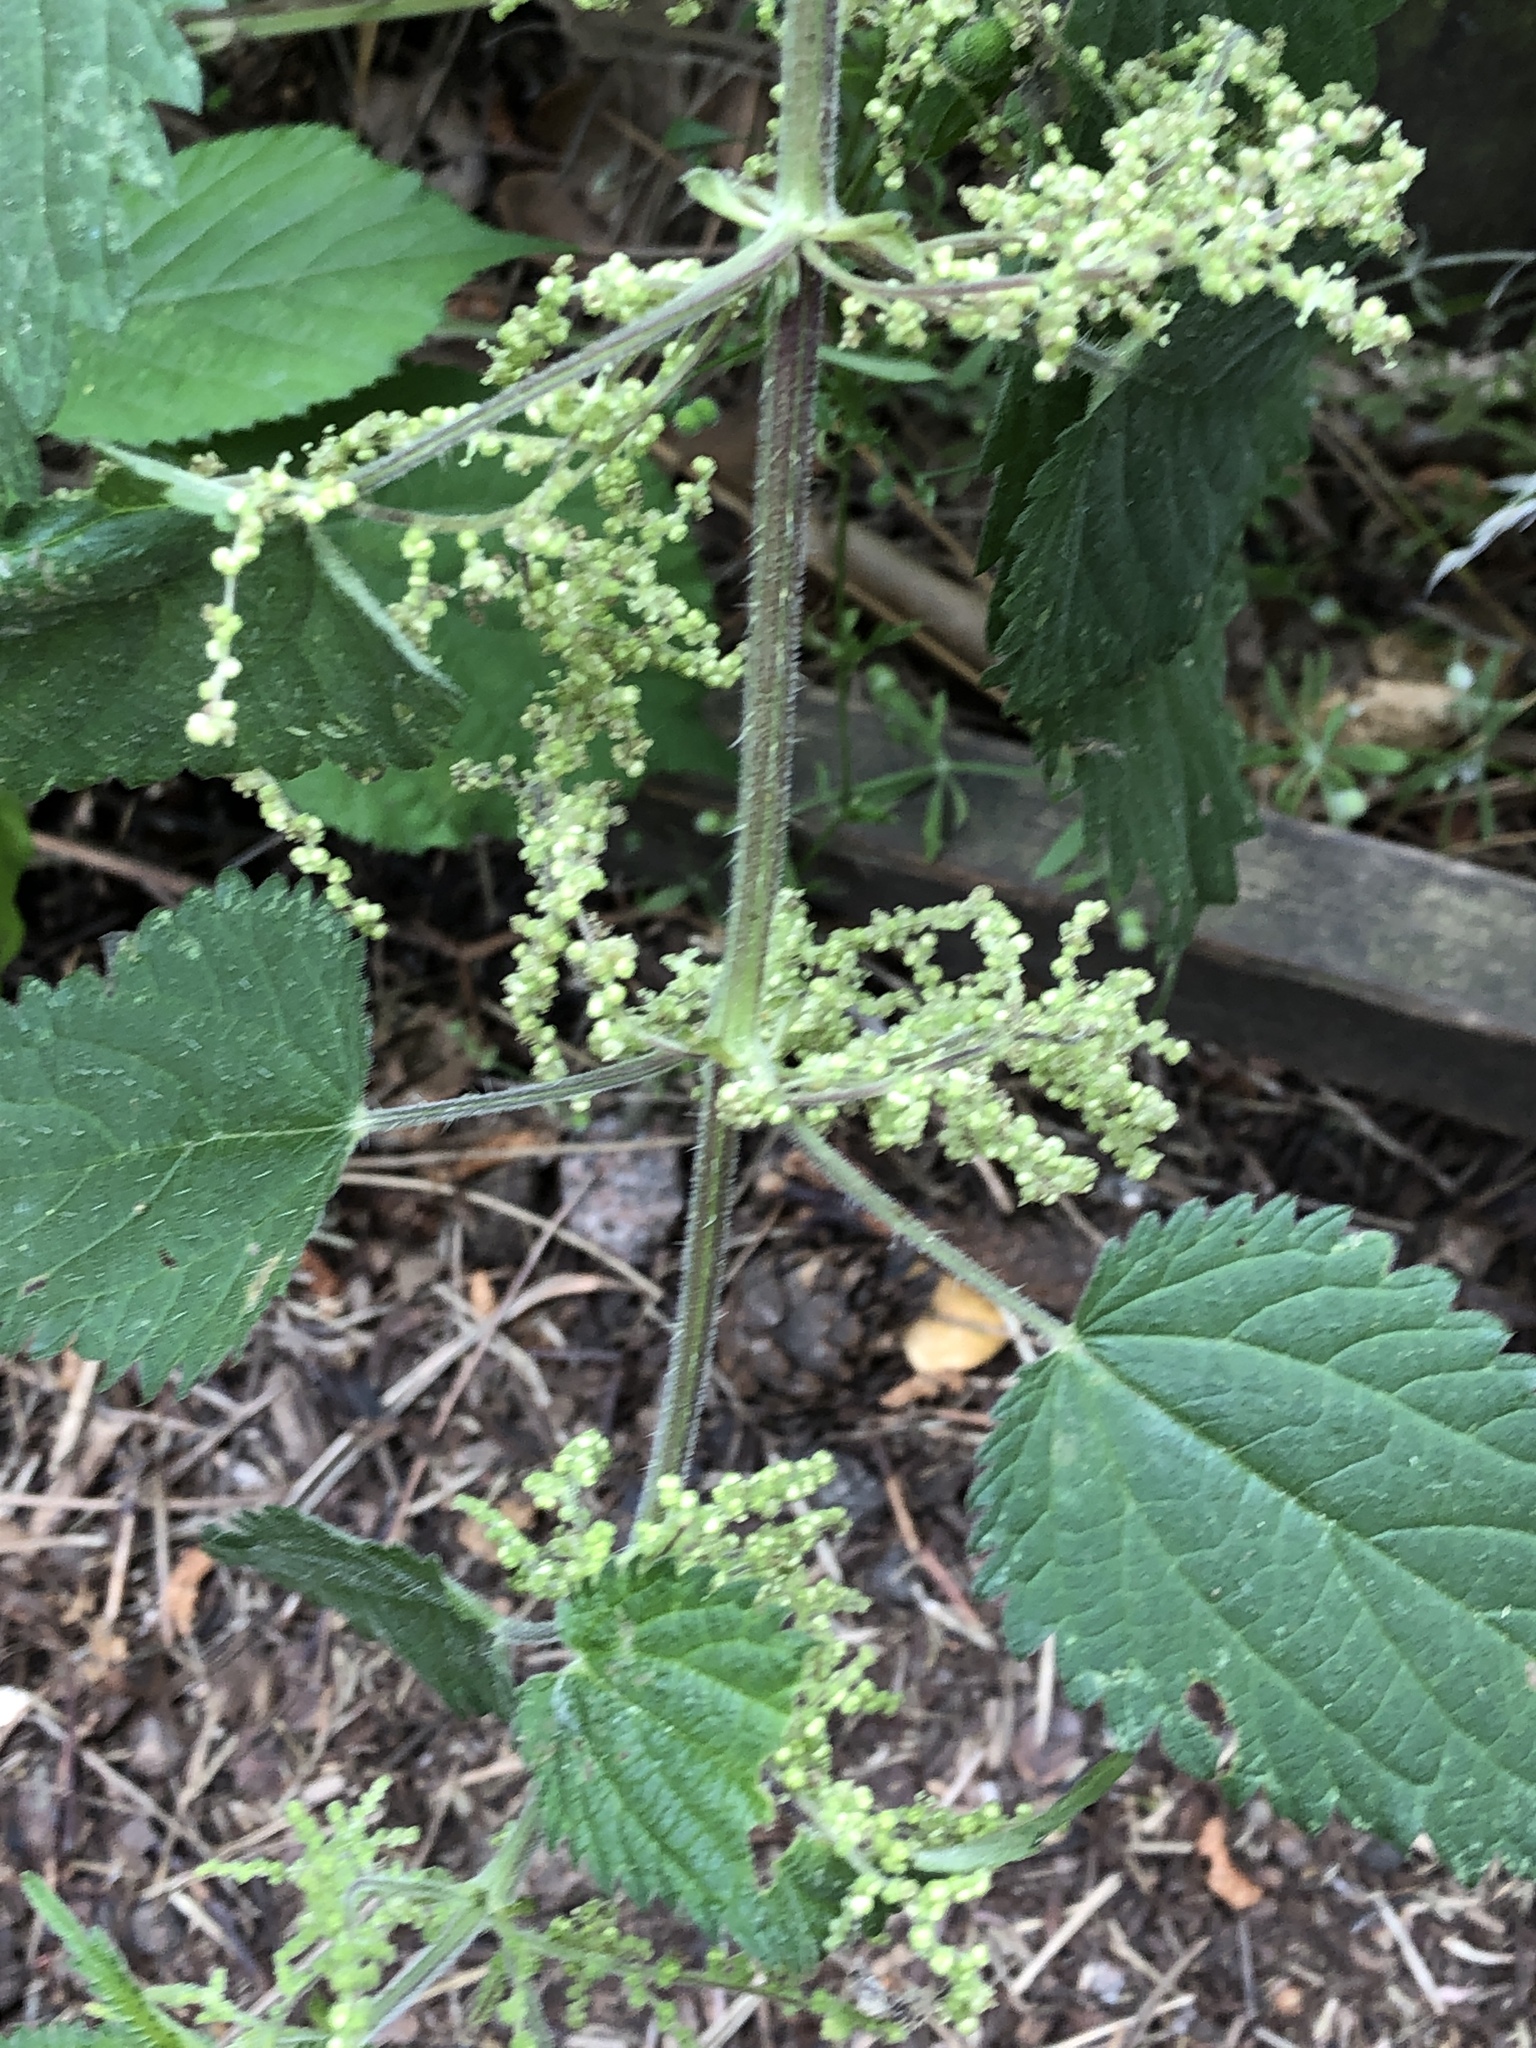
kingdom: Plantae
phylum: Tracheophyta
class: Magnoliopsida
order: Rosales
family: Urticaceae
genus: Urtica
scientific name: Urtica dioica
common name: Common nettle
